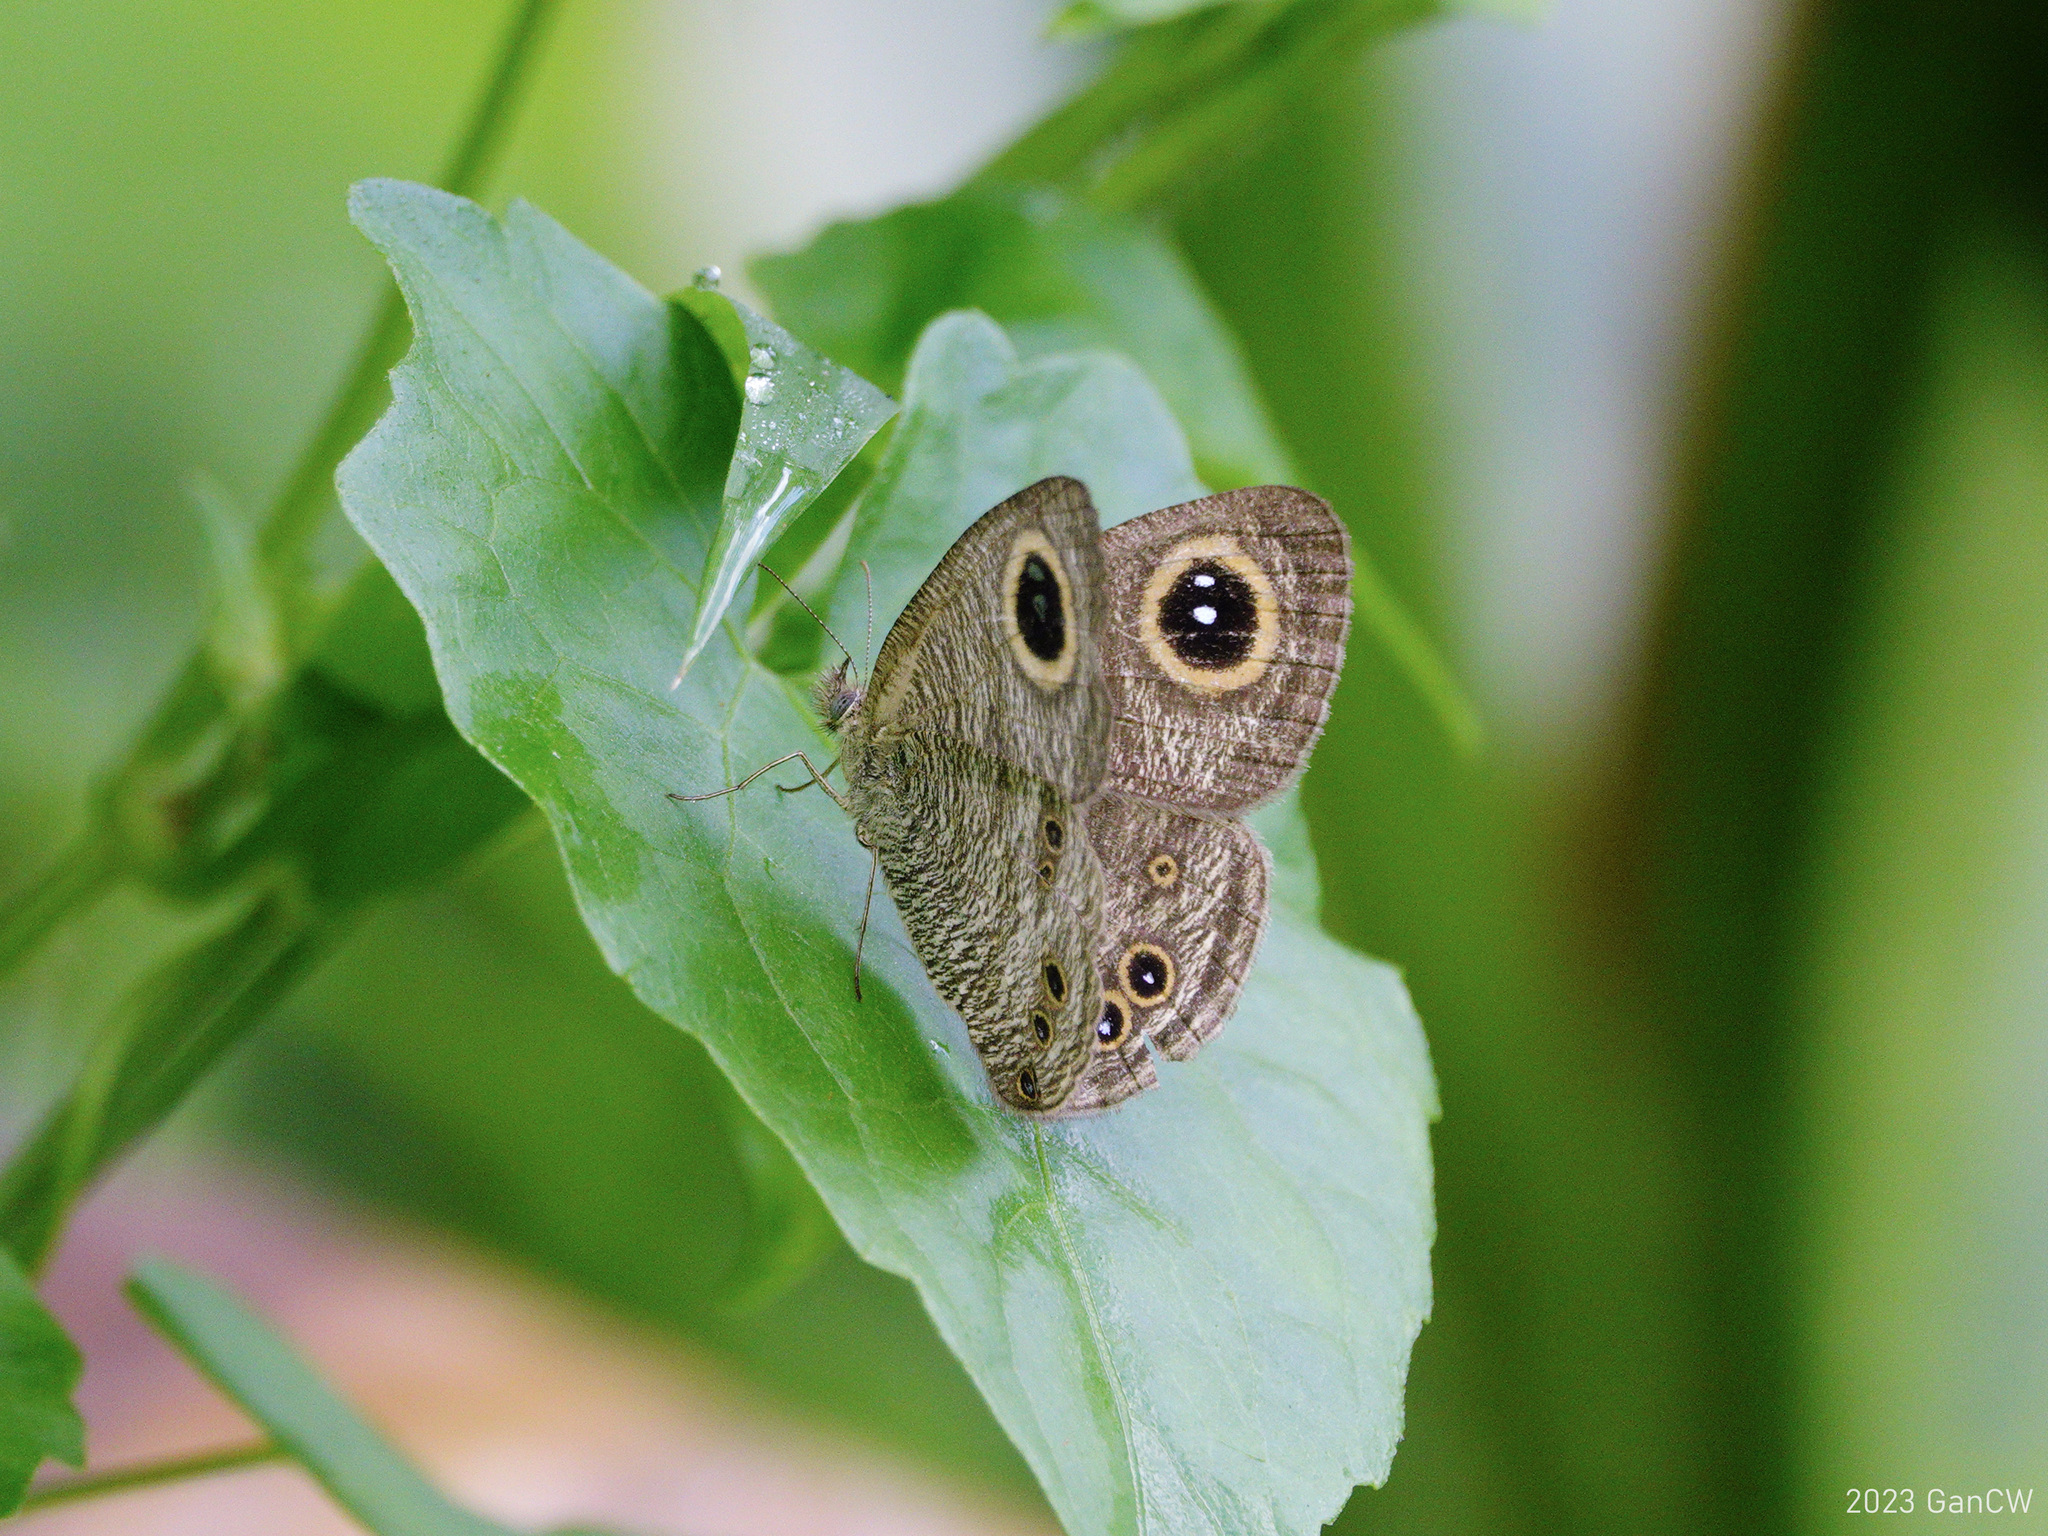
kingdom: Animalia
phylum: Arthropoda
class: Insecta
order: Lepidoptera
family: Nymphalidae
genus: Ypthima
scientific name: Ypthima baldus
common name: Common five-ring
